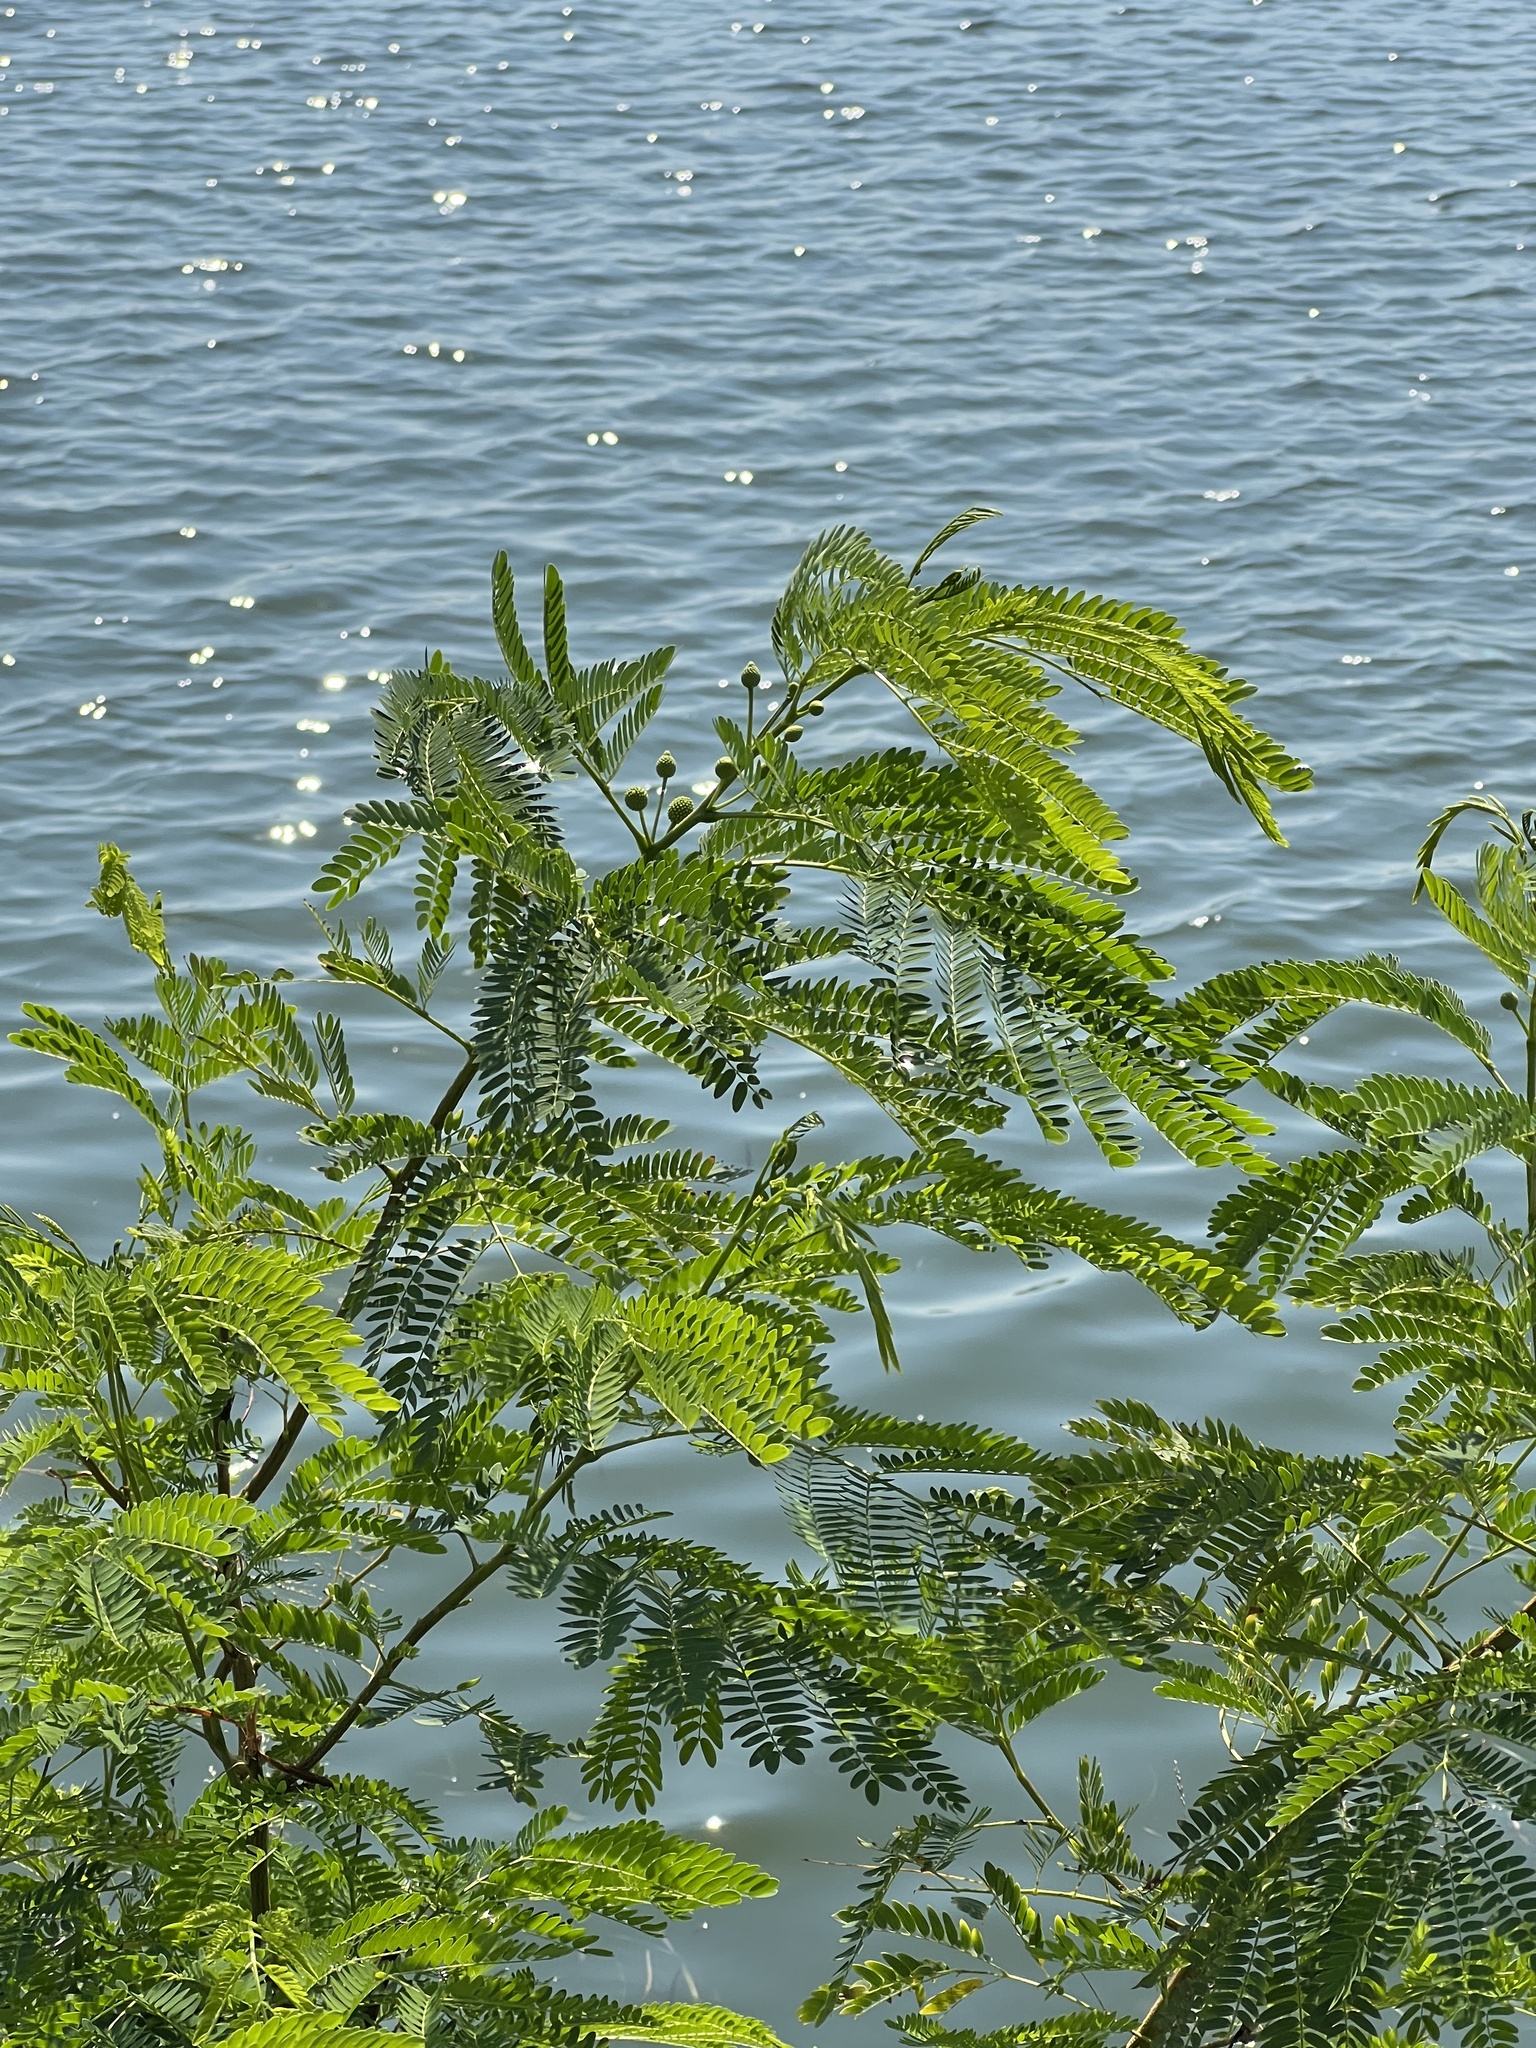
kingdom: Plantae
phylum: Tracheophyta
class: Magnoliopsida
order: Fabales
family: Fabaceae
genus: Leucaena
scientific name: Leucaena leucocephala
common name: White leadtree
